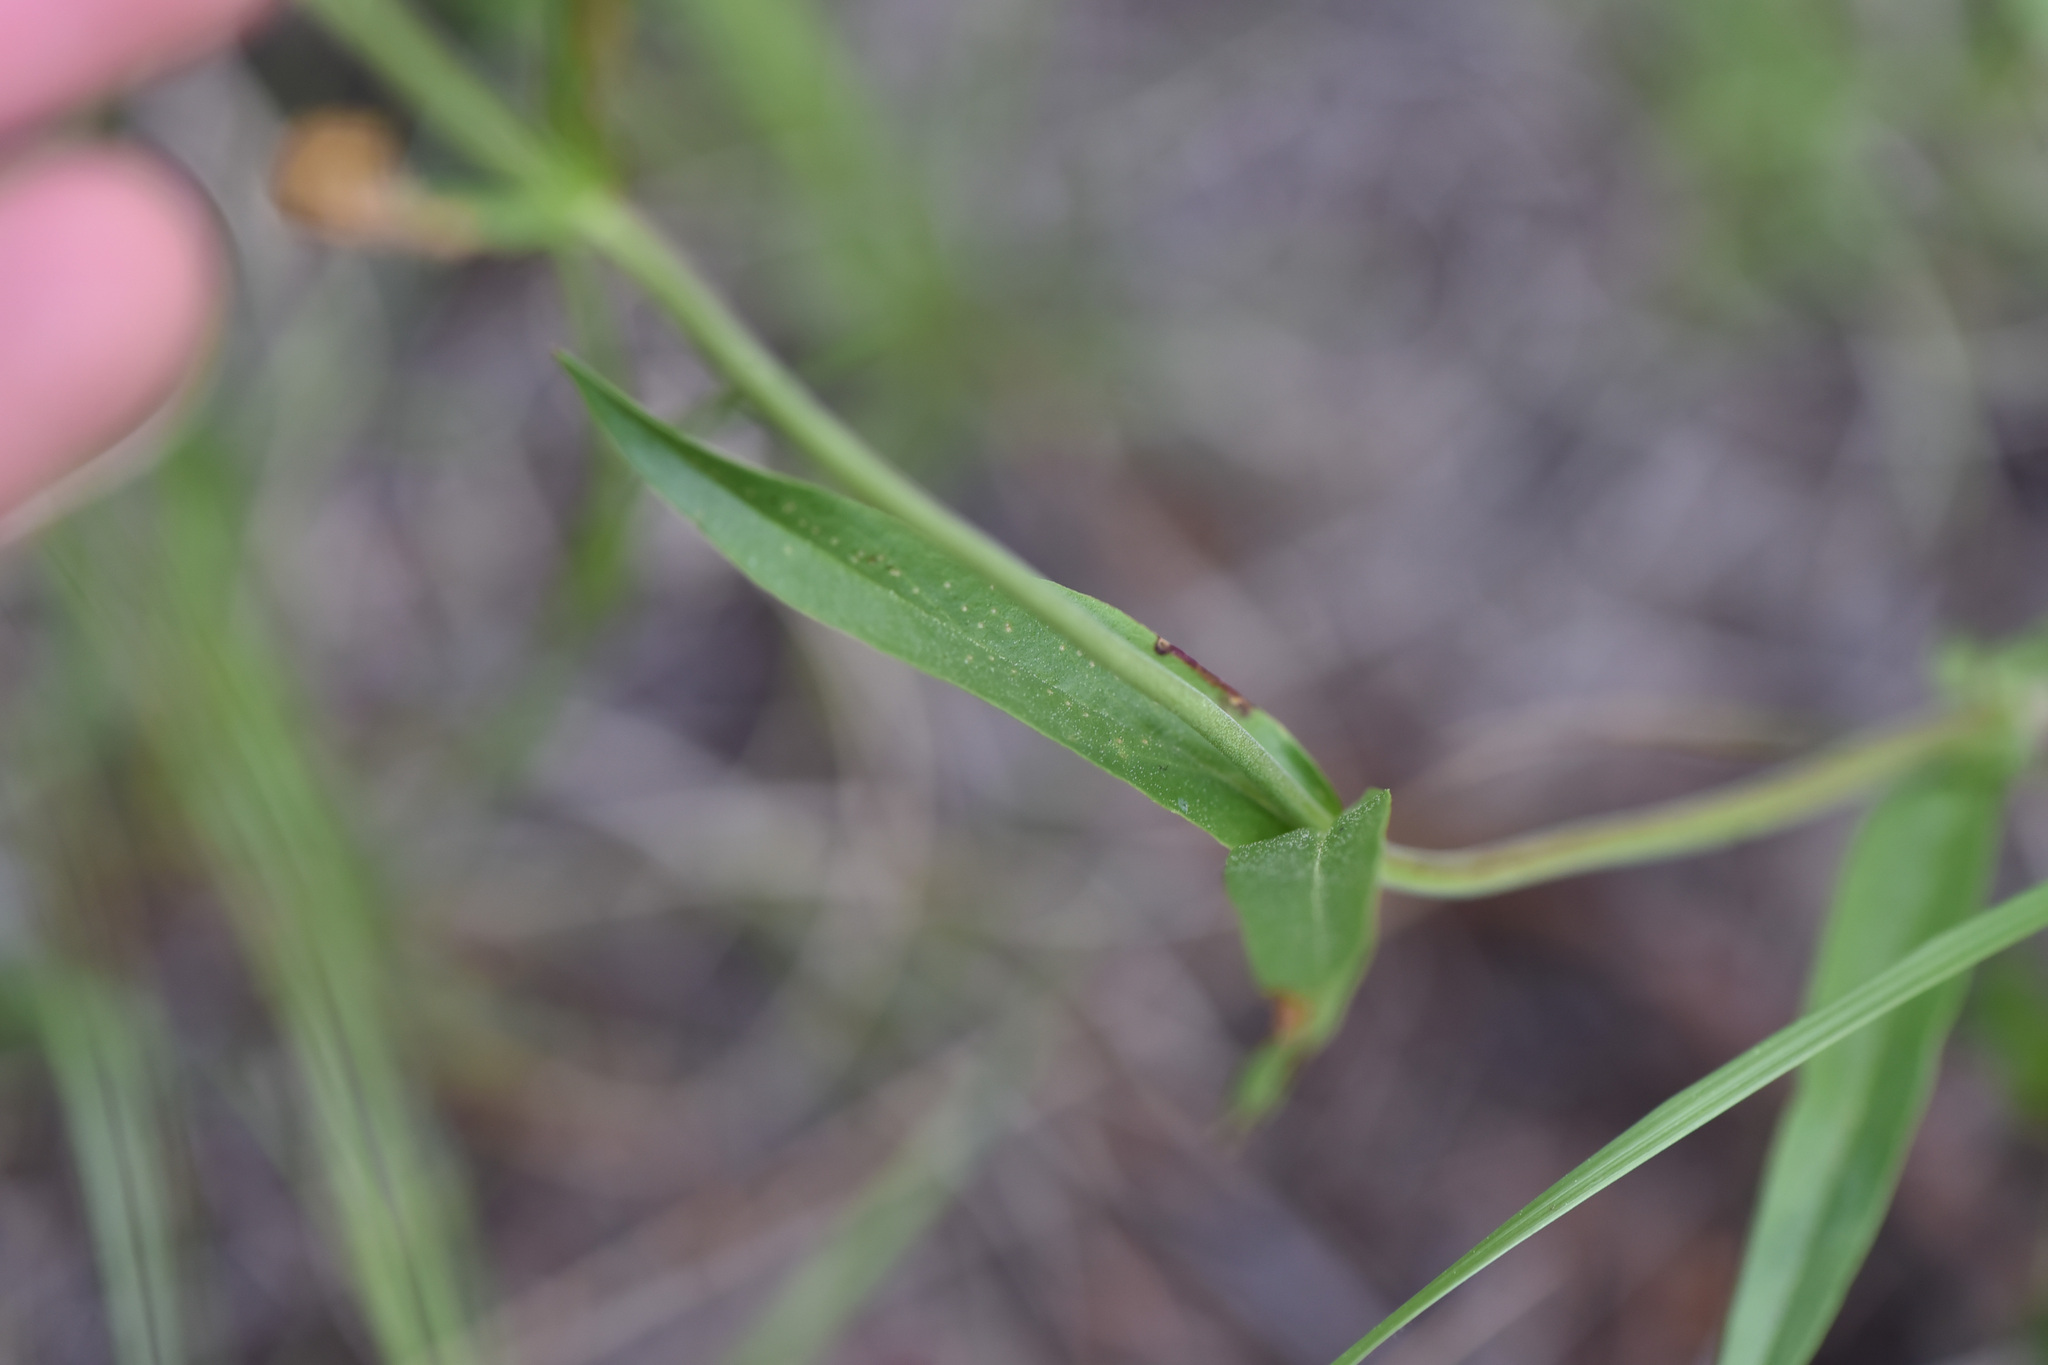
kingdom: Plantae
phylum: Tracheophyta
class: Magnoliopsida
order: Lamiales
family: Plantaginaceae
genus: Penstemon
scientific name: Penstemon confertus
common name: Lesser yellow beardtongue
